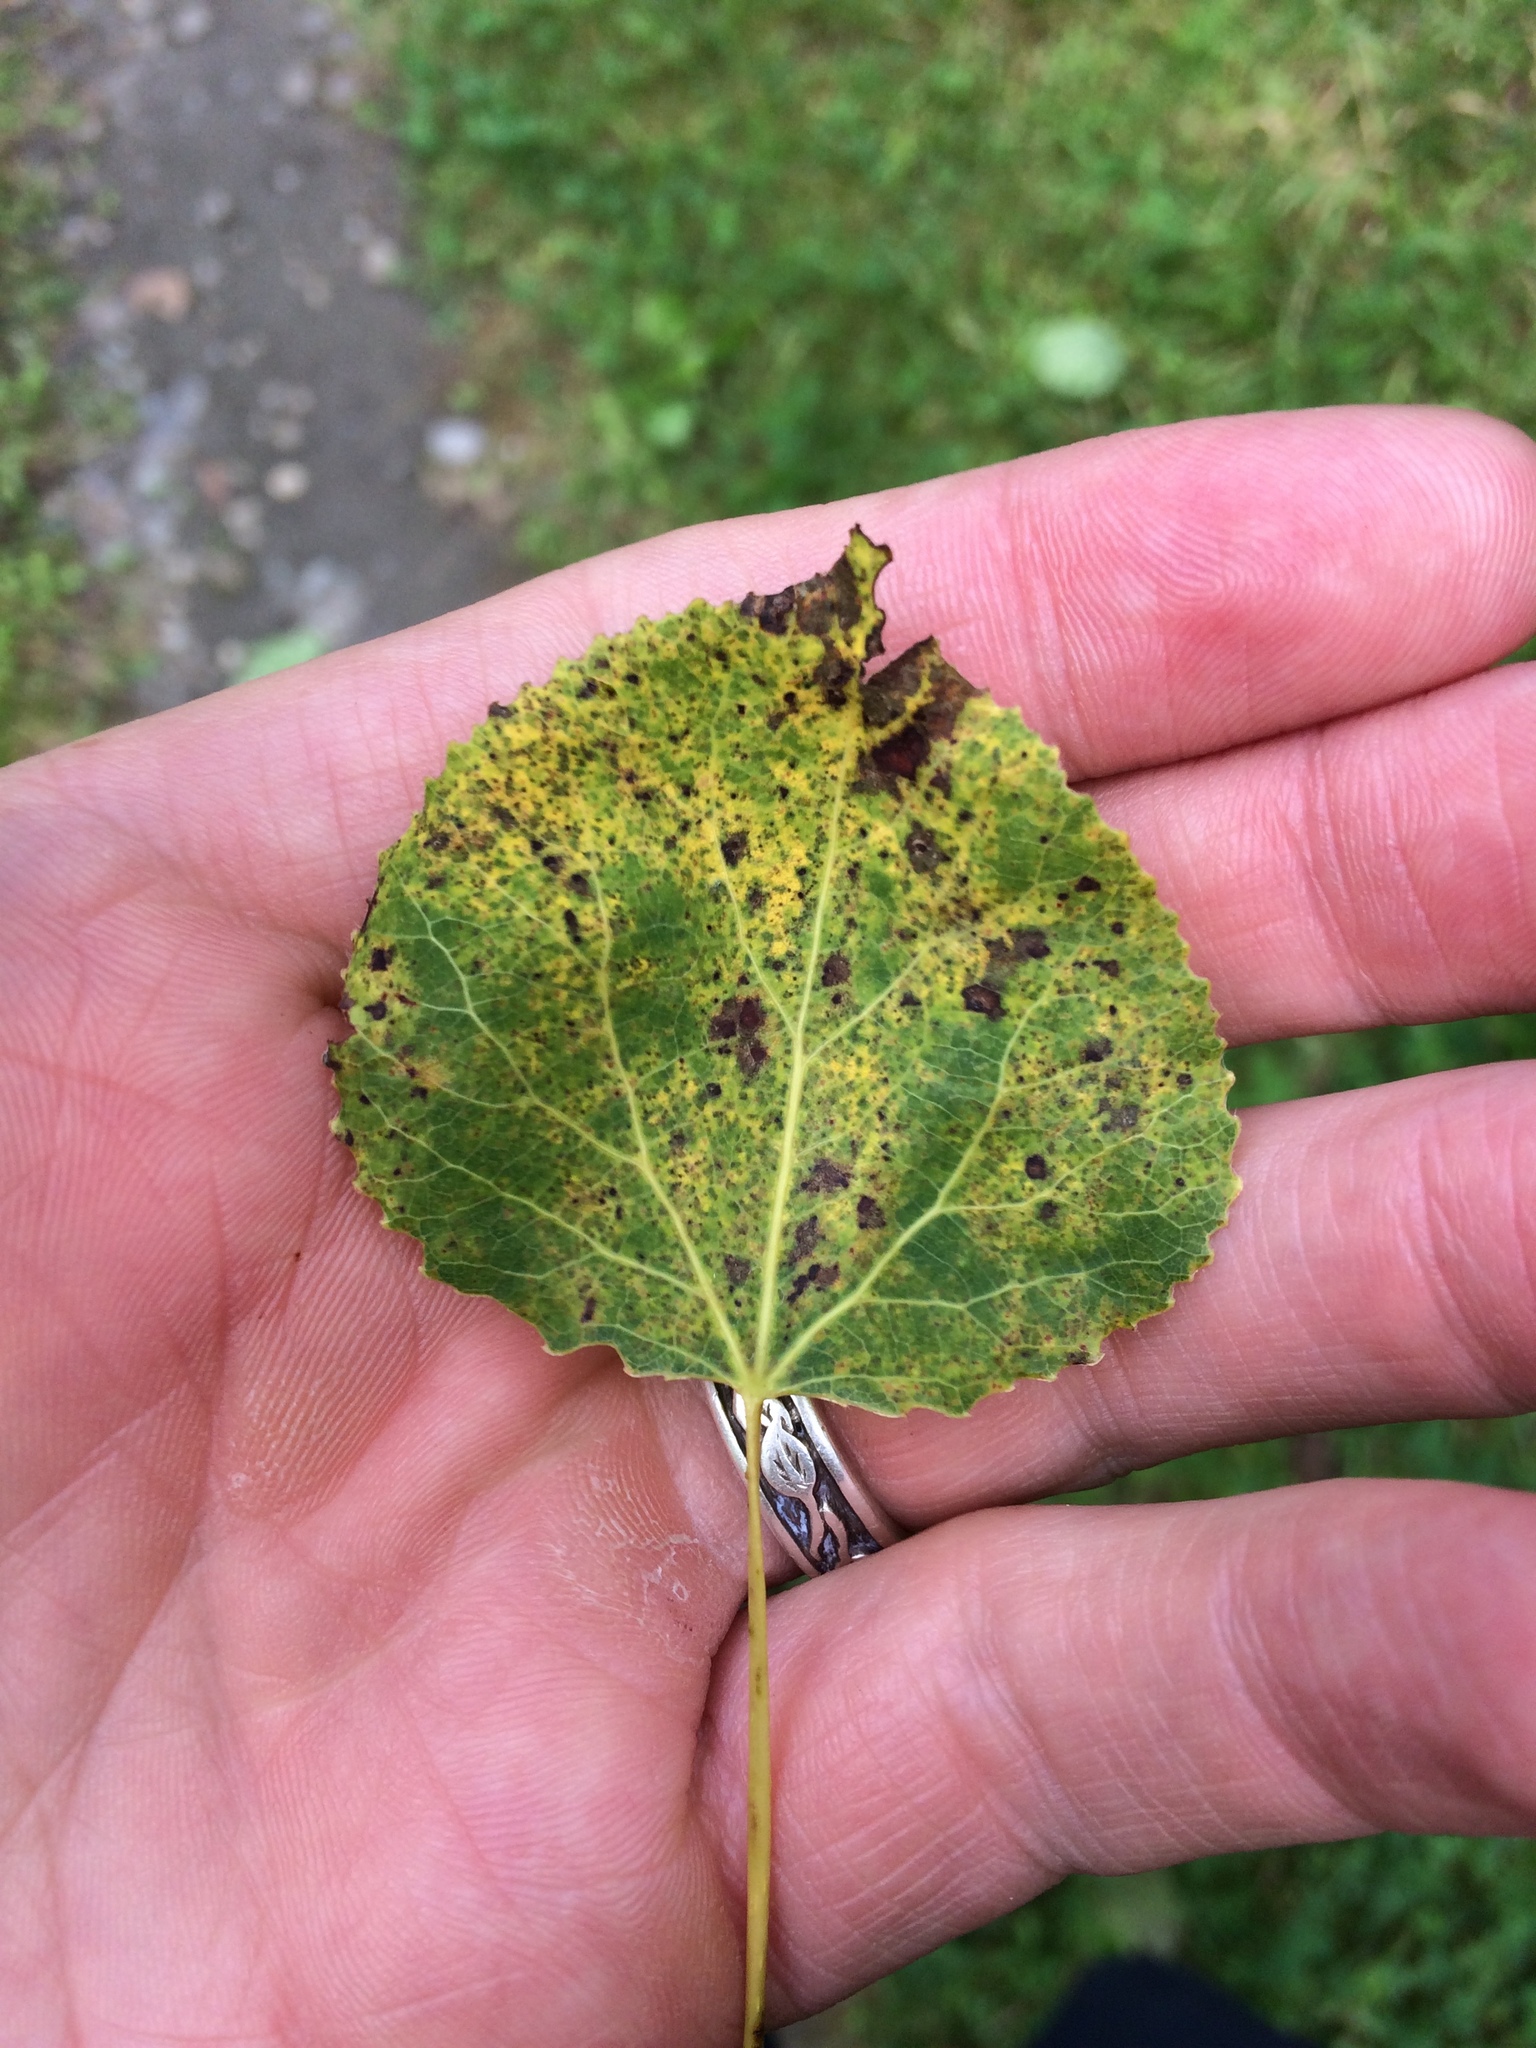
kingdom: Plantae
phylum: Tracheophyta
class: Magnoliopsida
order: Malpighiales
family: Salicaceae
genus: Populus
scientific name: Populus tremuloides
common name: Quaking aspen
